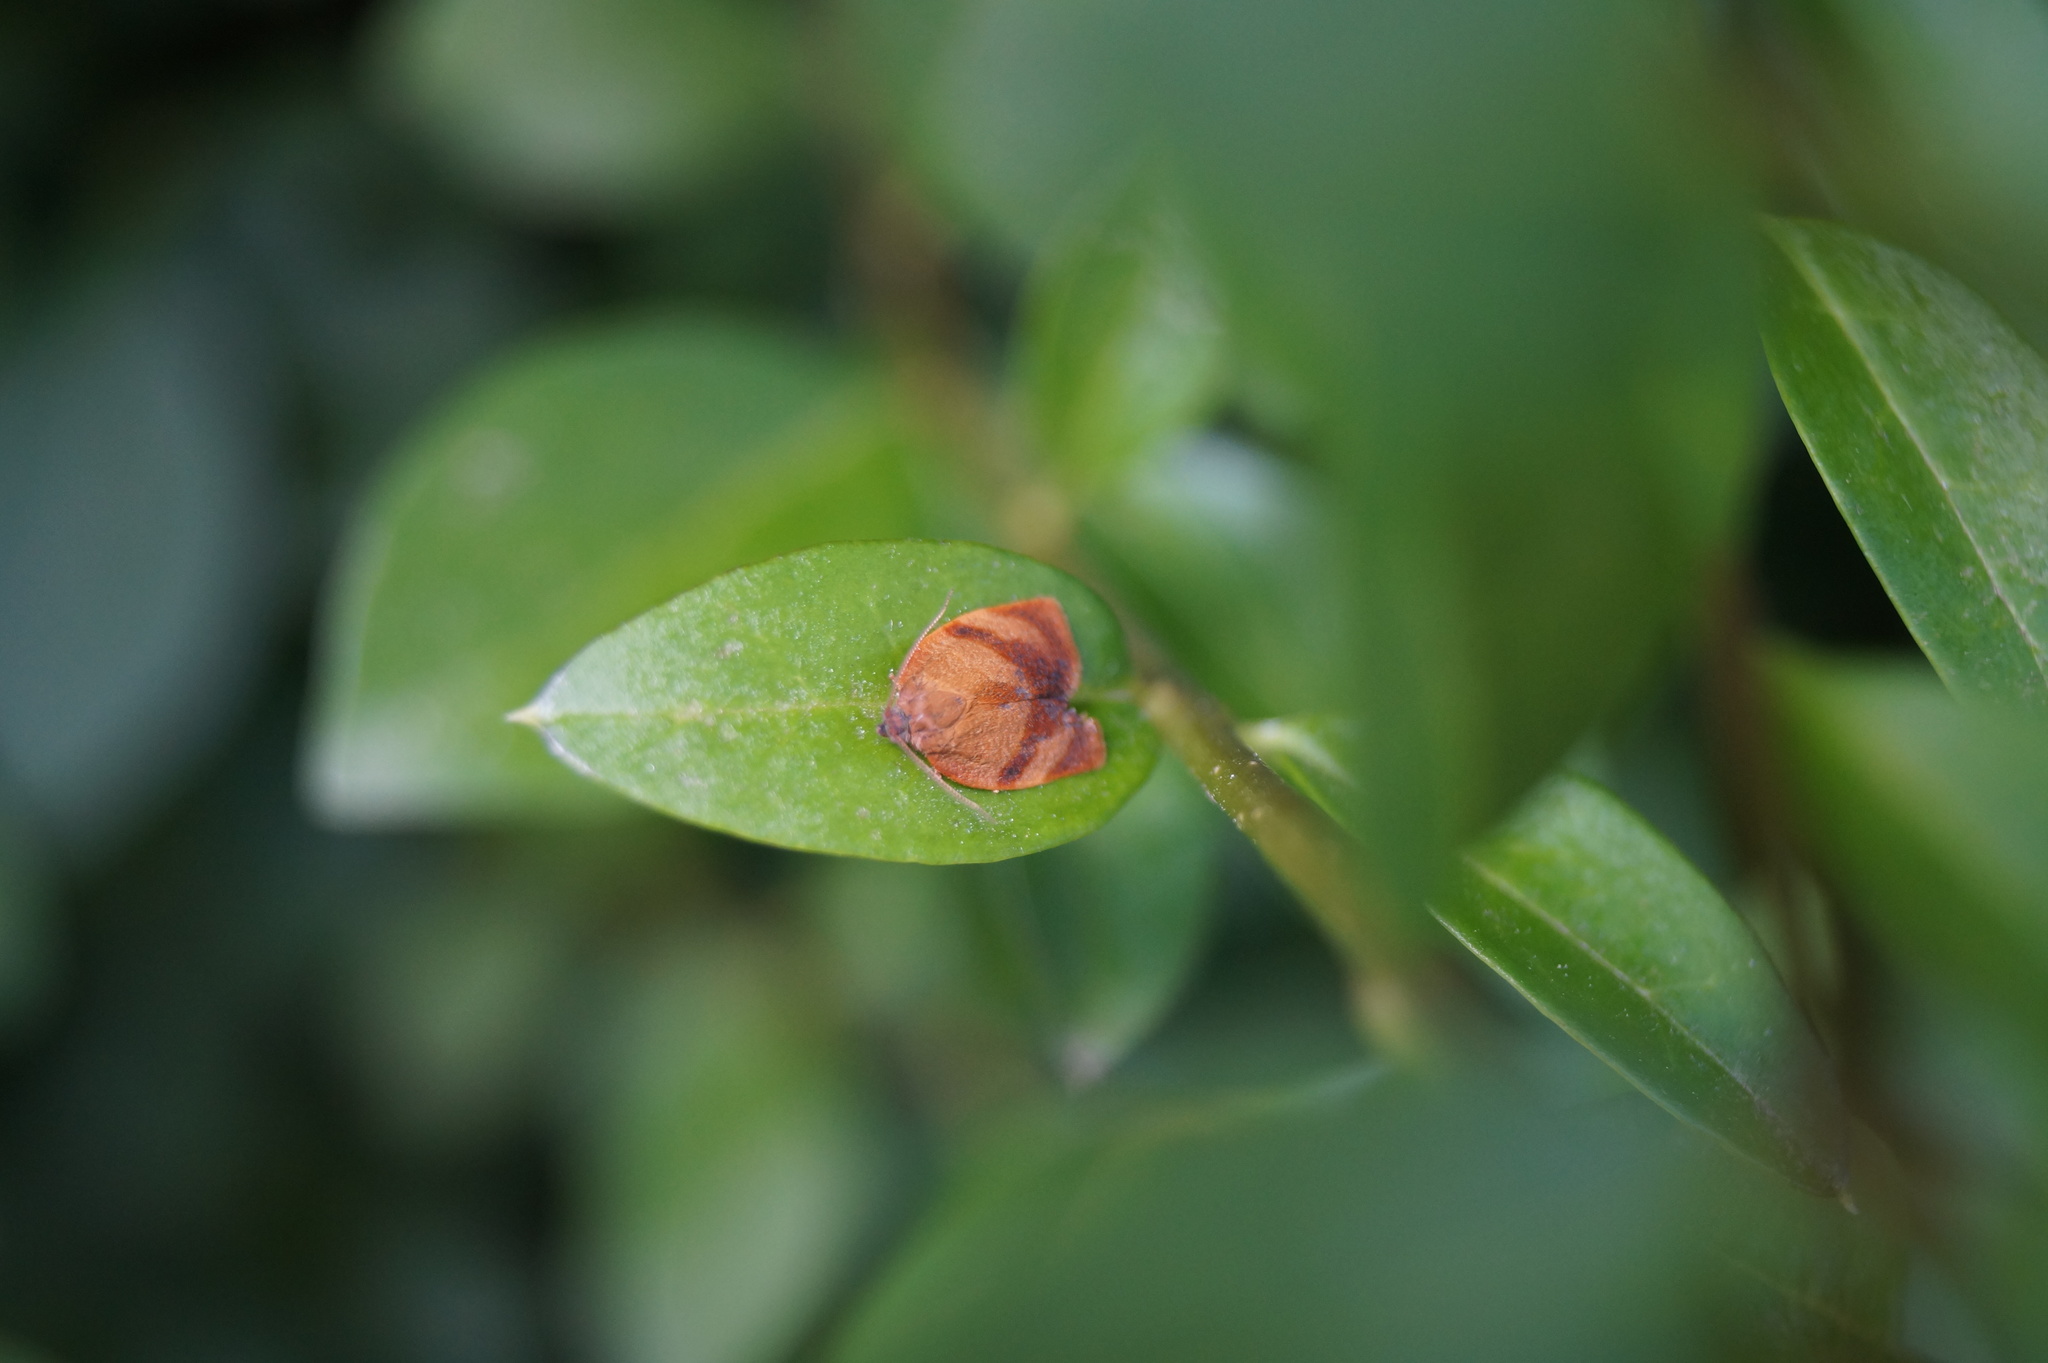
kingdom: Animalia
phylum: Arthropoda
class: Insecta
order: Lepidoptera
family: Tortricidae
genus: Cacoecimorpha
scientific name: Cacoecimorpha pronubana
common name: Carnation tortrix
